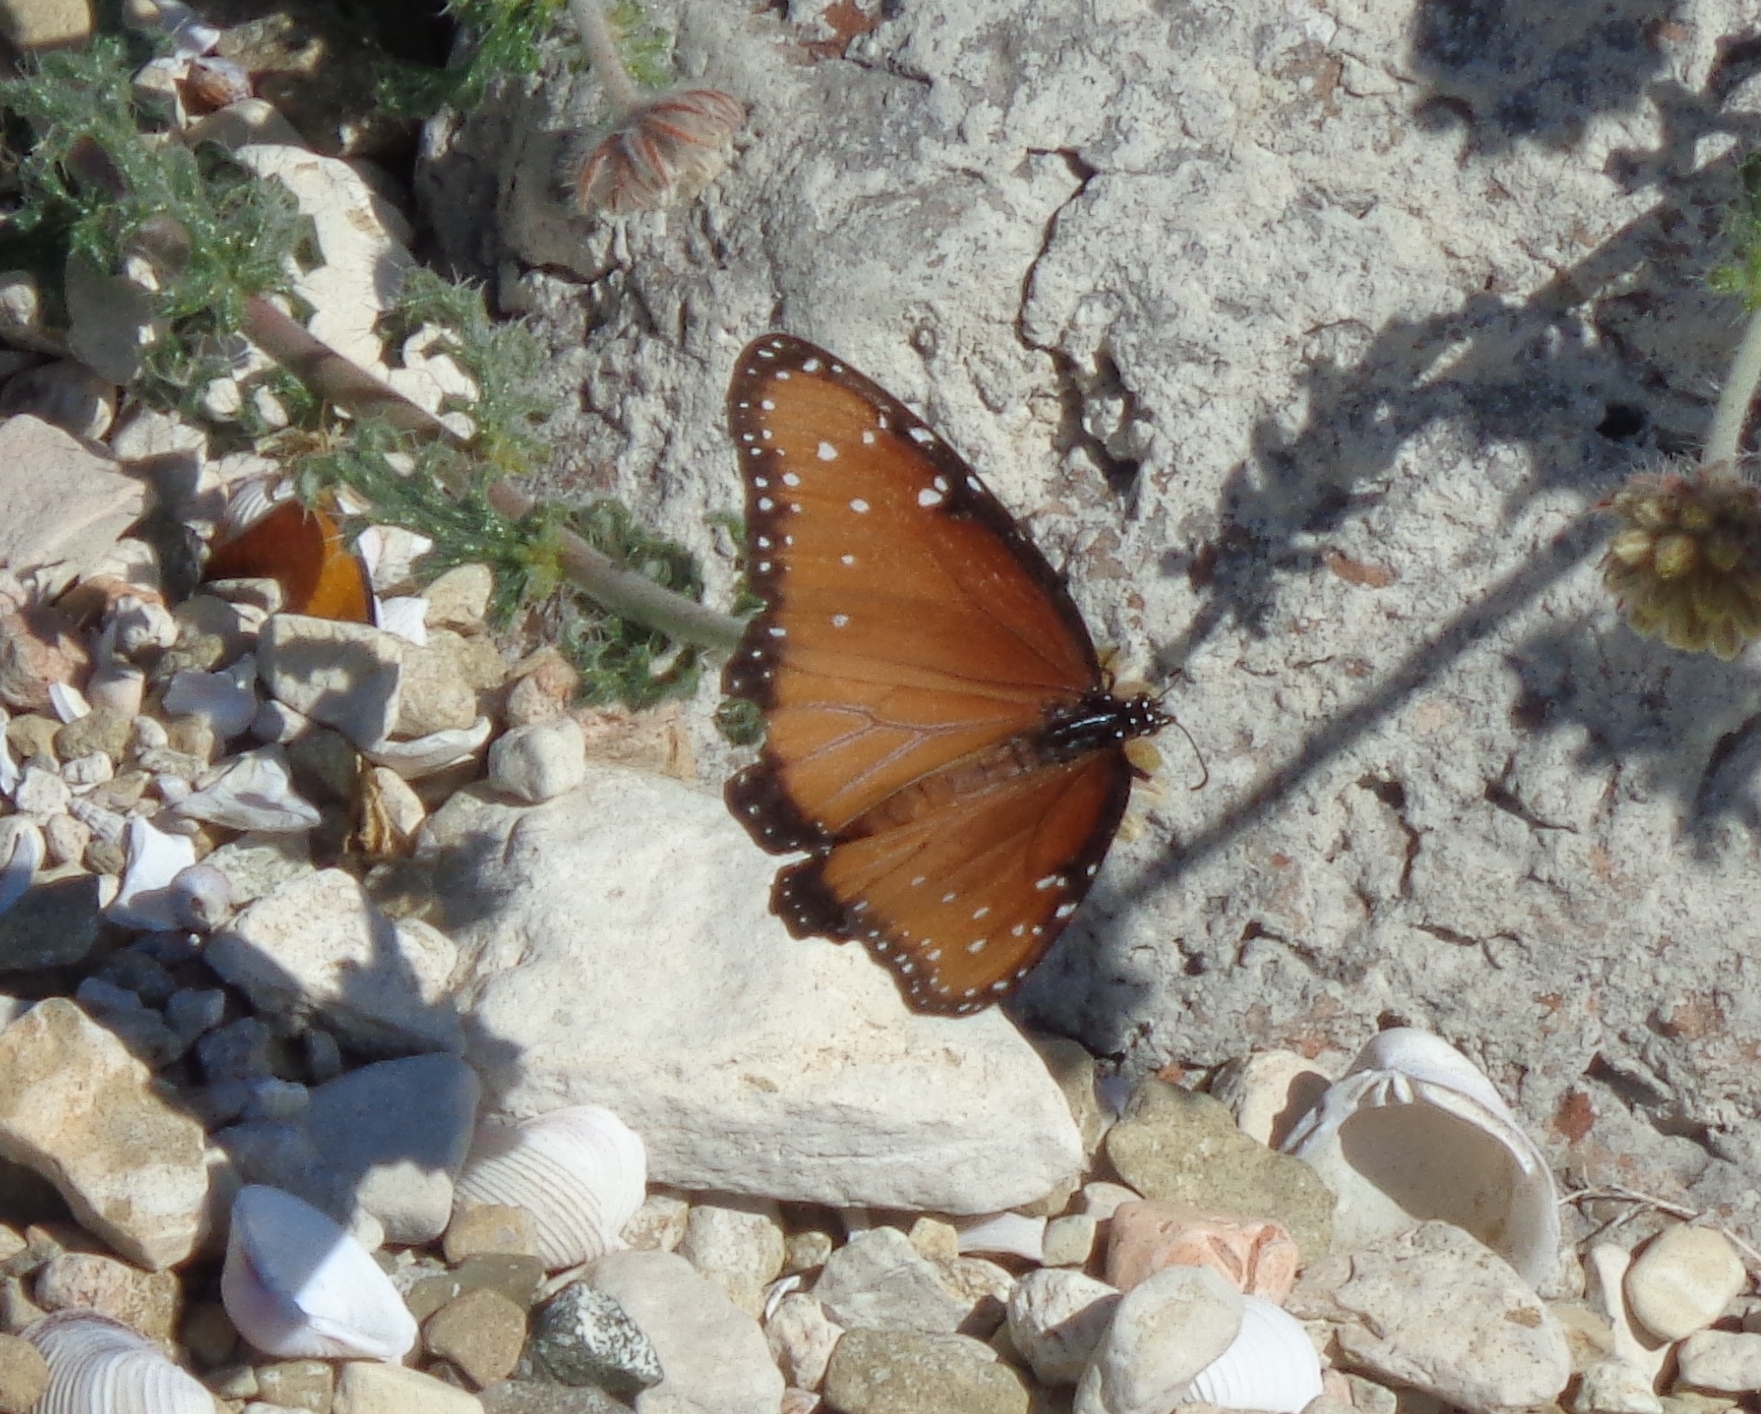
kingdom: Animalia
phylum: Arthropoda
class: Insecta
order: Lepidoptera
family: Nymphalidae
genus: Danaus
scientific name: Danaus gilippus
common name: Queen
